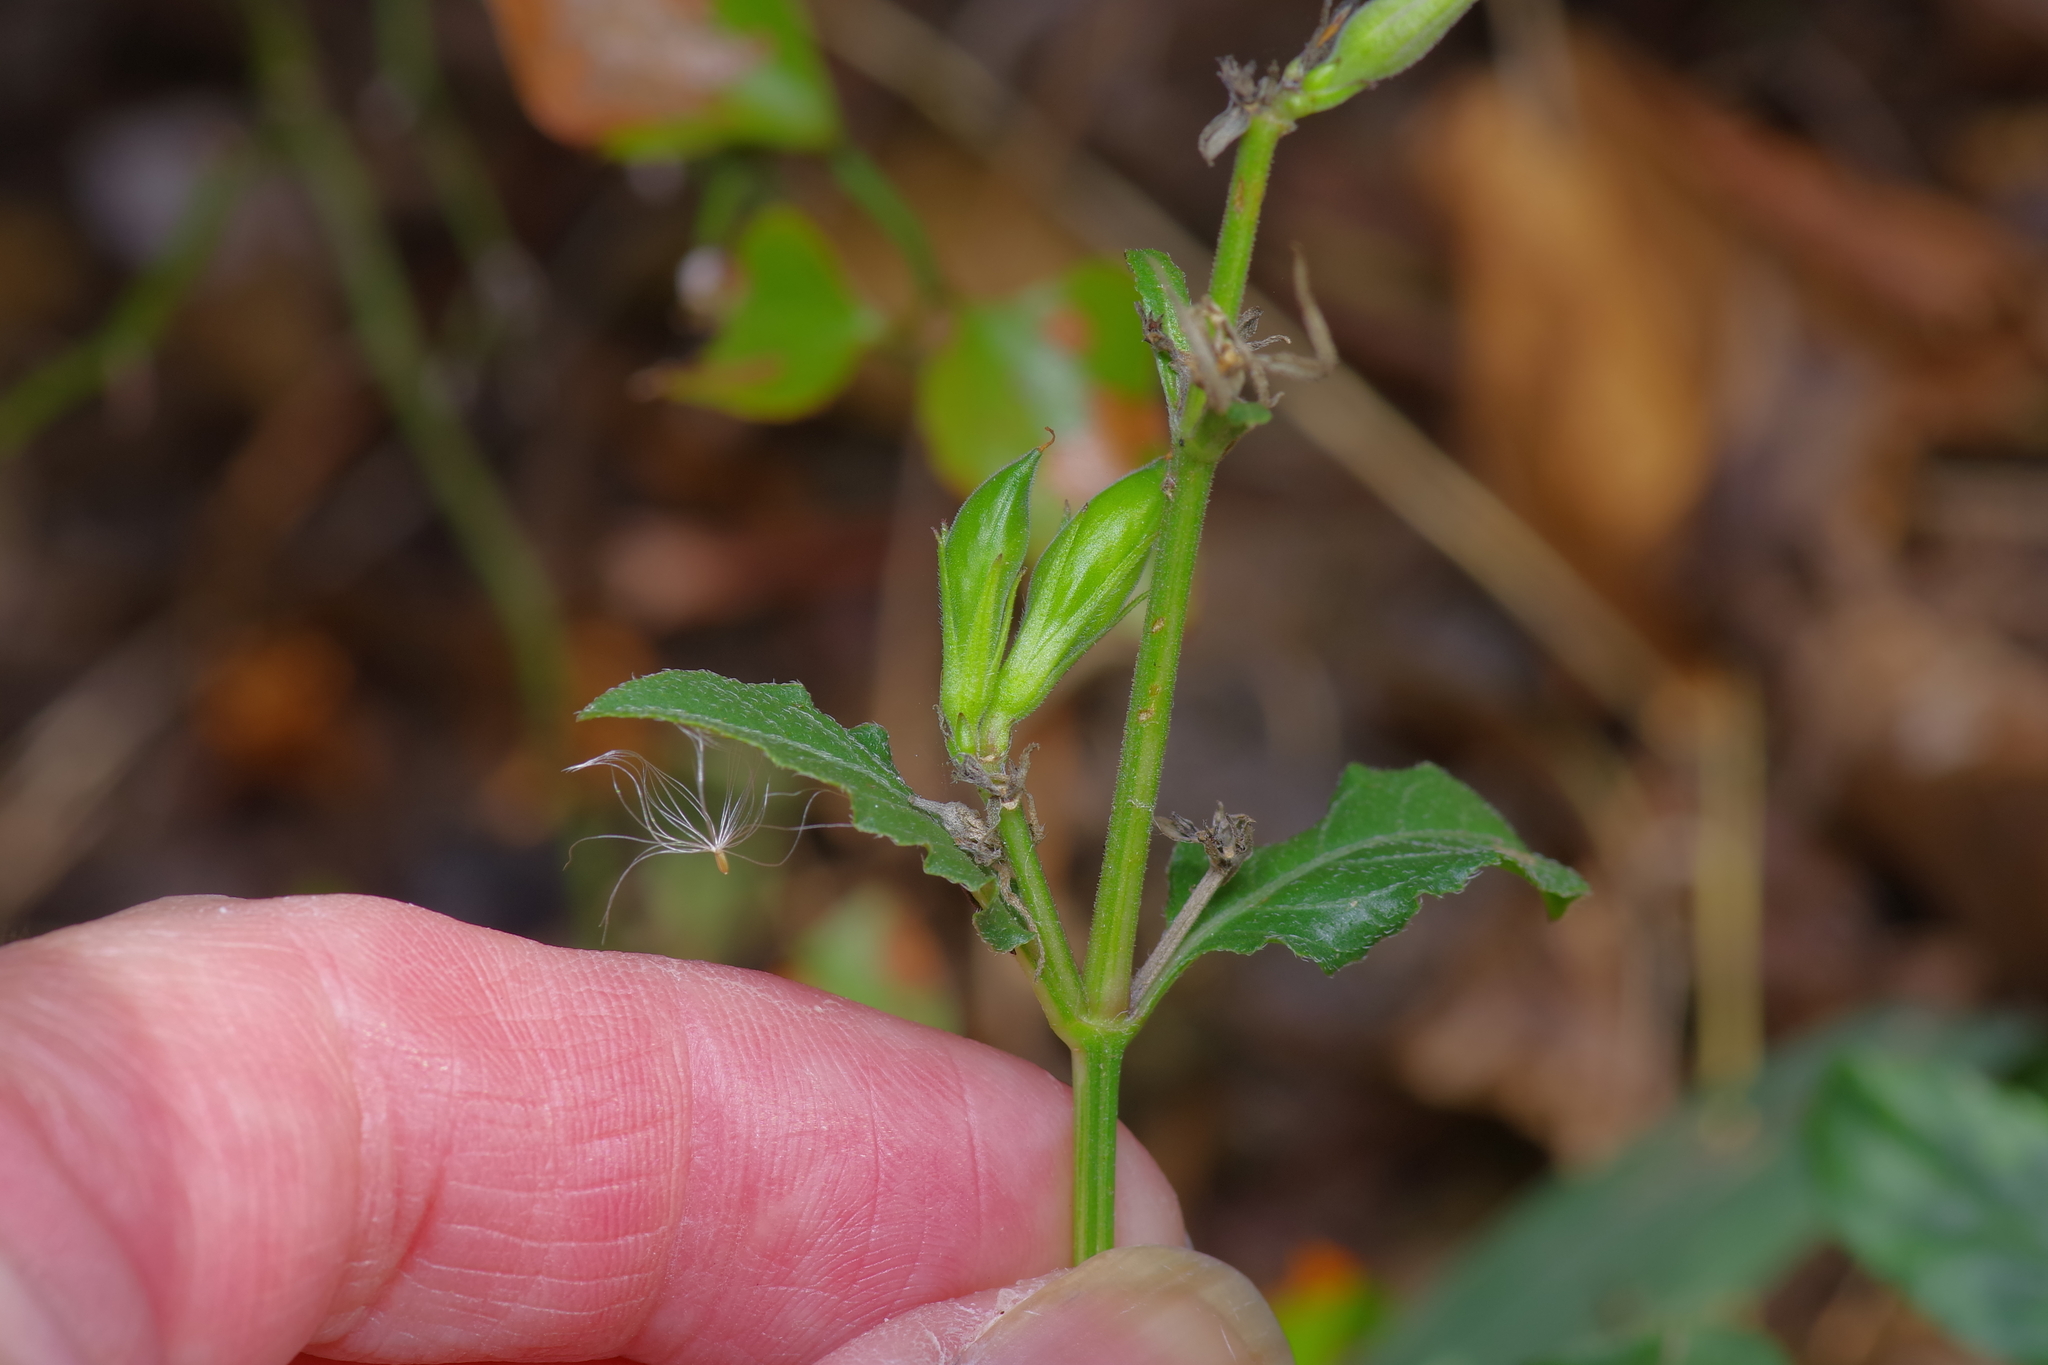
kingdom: Plantae
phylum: Tracheophyta
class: Magnoliopsida
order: Lamiales
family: Acanthaceae
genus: Ruellia
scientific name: Ruellia ciliatiflora
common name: Hairyflower wild petunia
